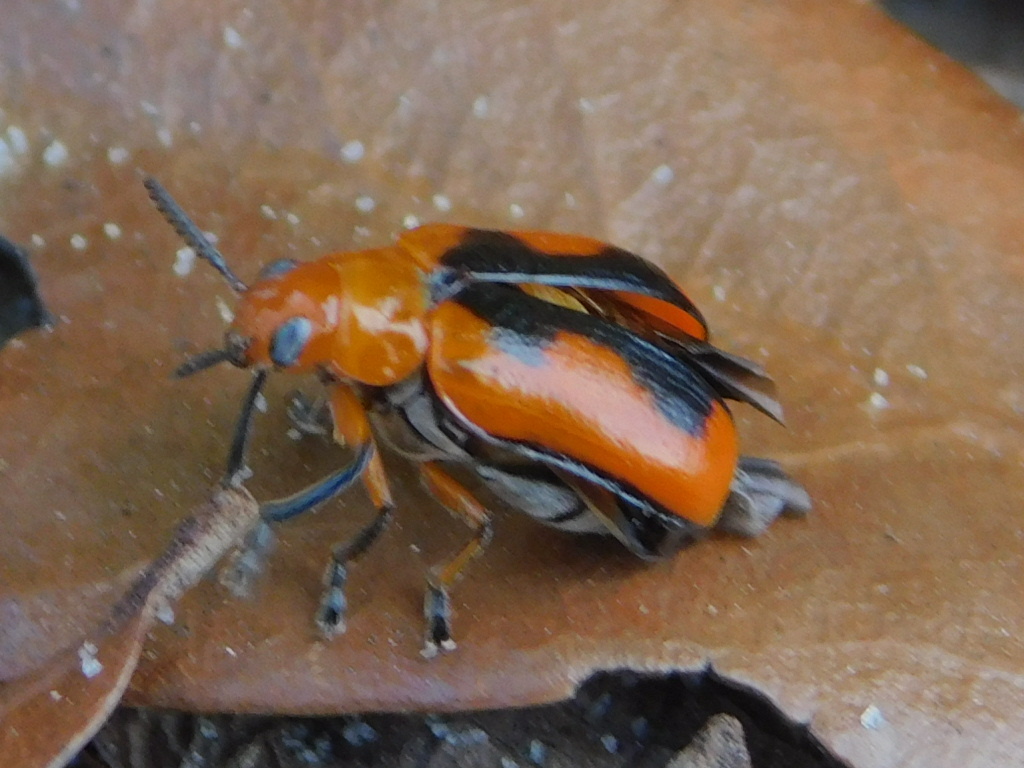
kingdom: Animalia
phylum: Arthropoda
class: Insecta
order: Coleoptera
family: Chrysomelidae
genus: Anomoea
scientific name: Anomoea nitidicollis
